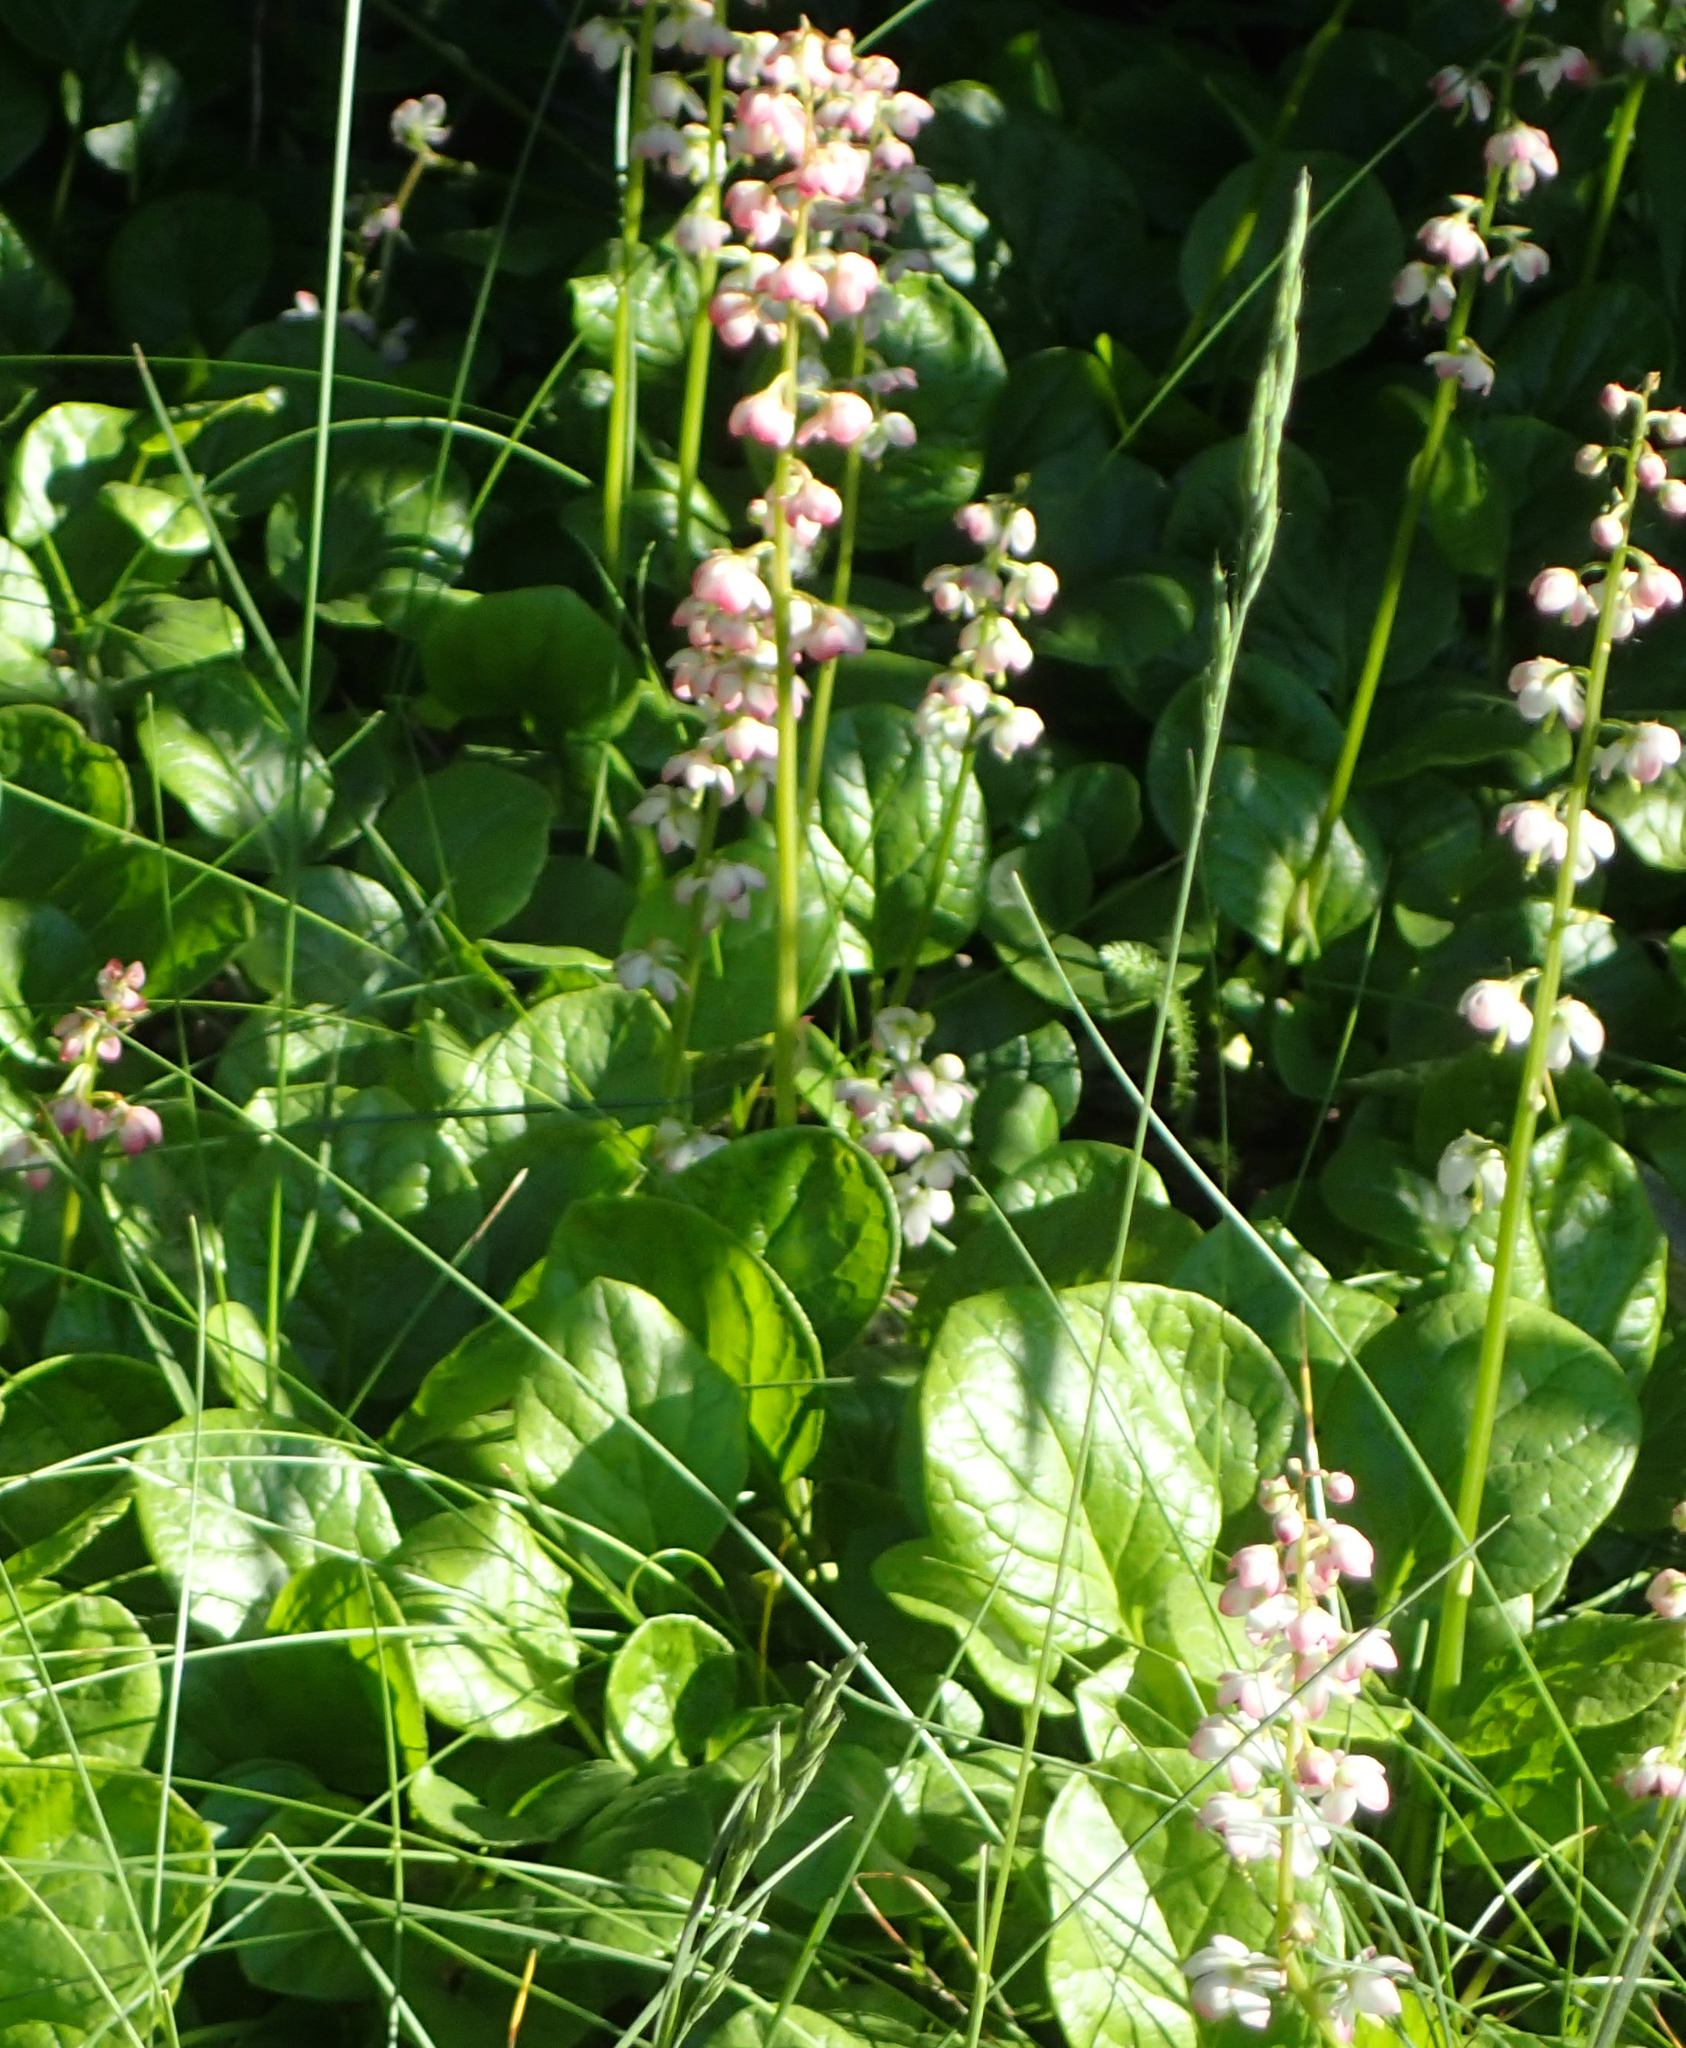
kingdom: Plantae
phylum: Tracheophyta
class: Magnoliopsida
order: Ericales
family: Ericaceae
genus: Pyrola
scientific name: Pyrola grandiflora
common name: Arctic pyrola
